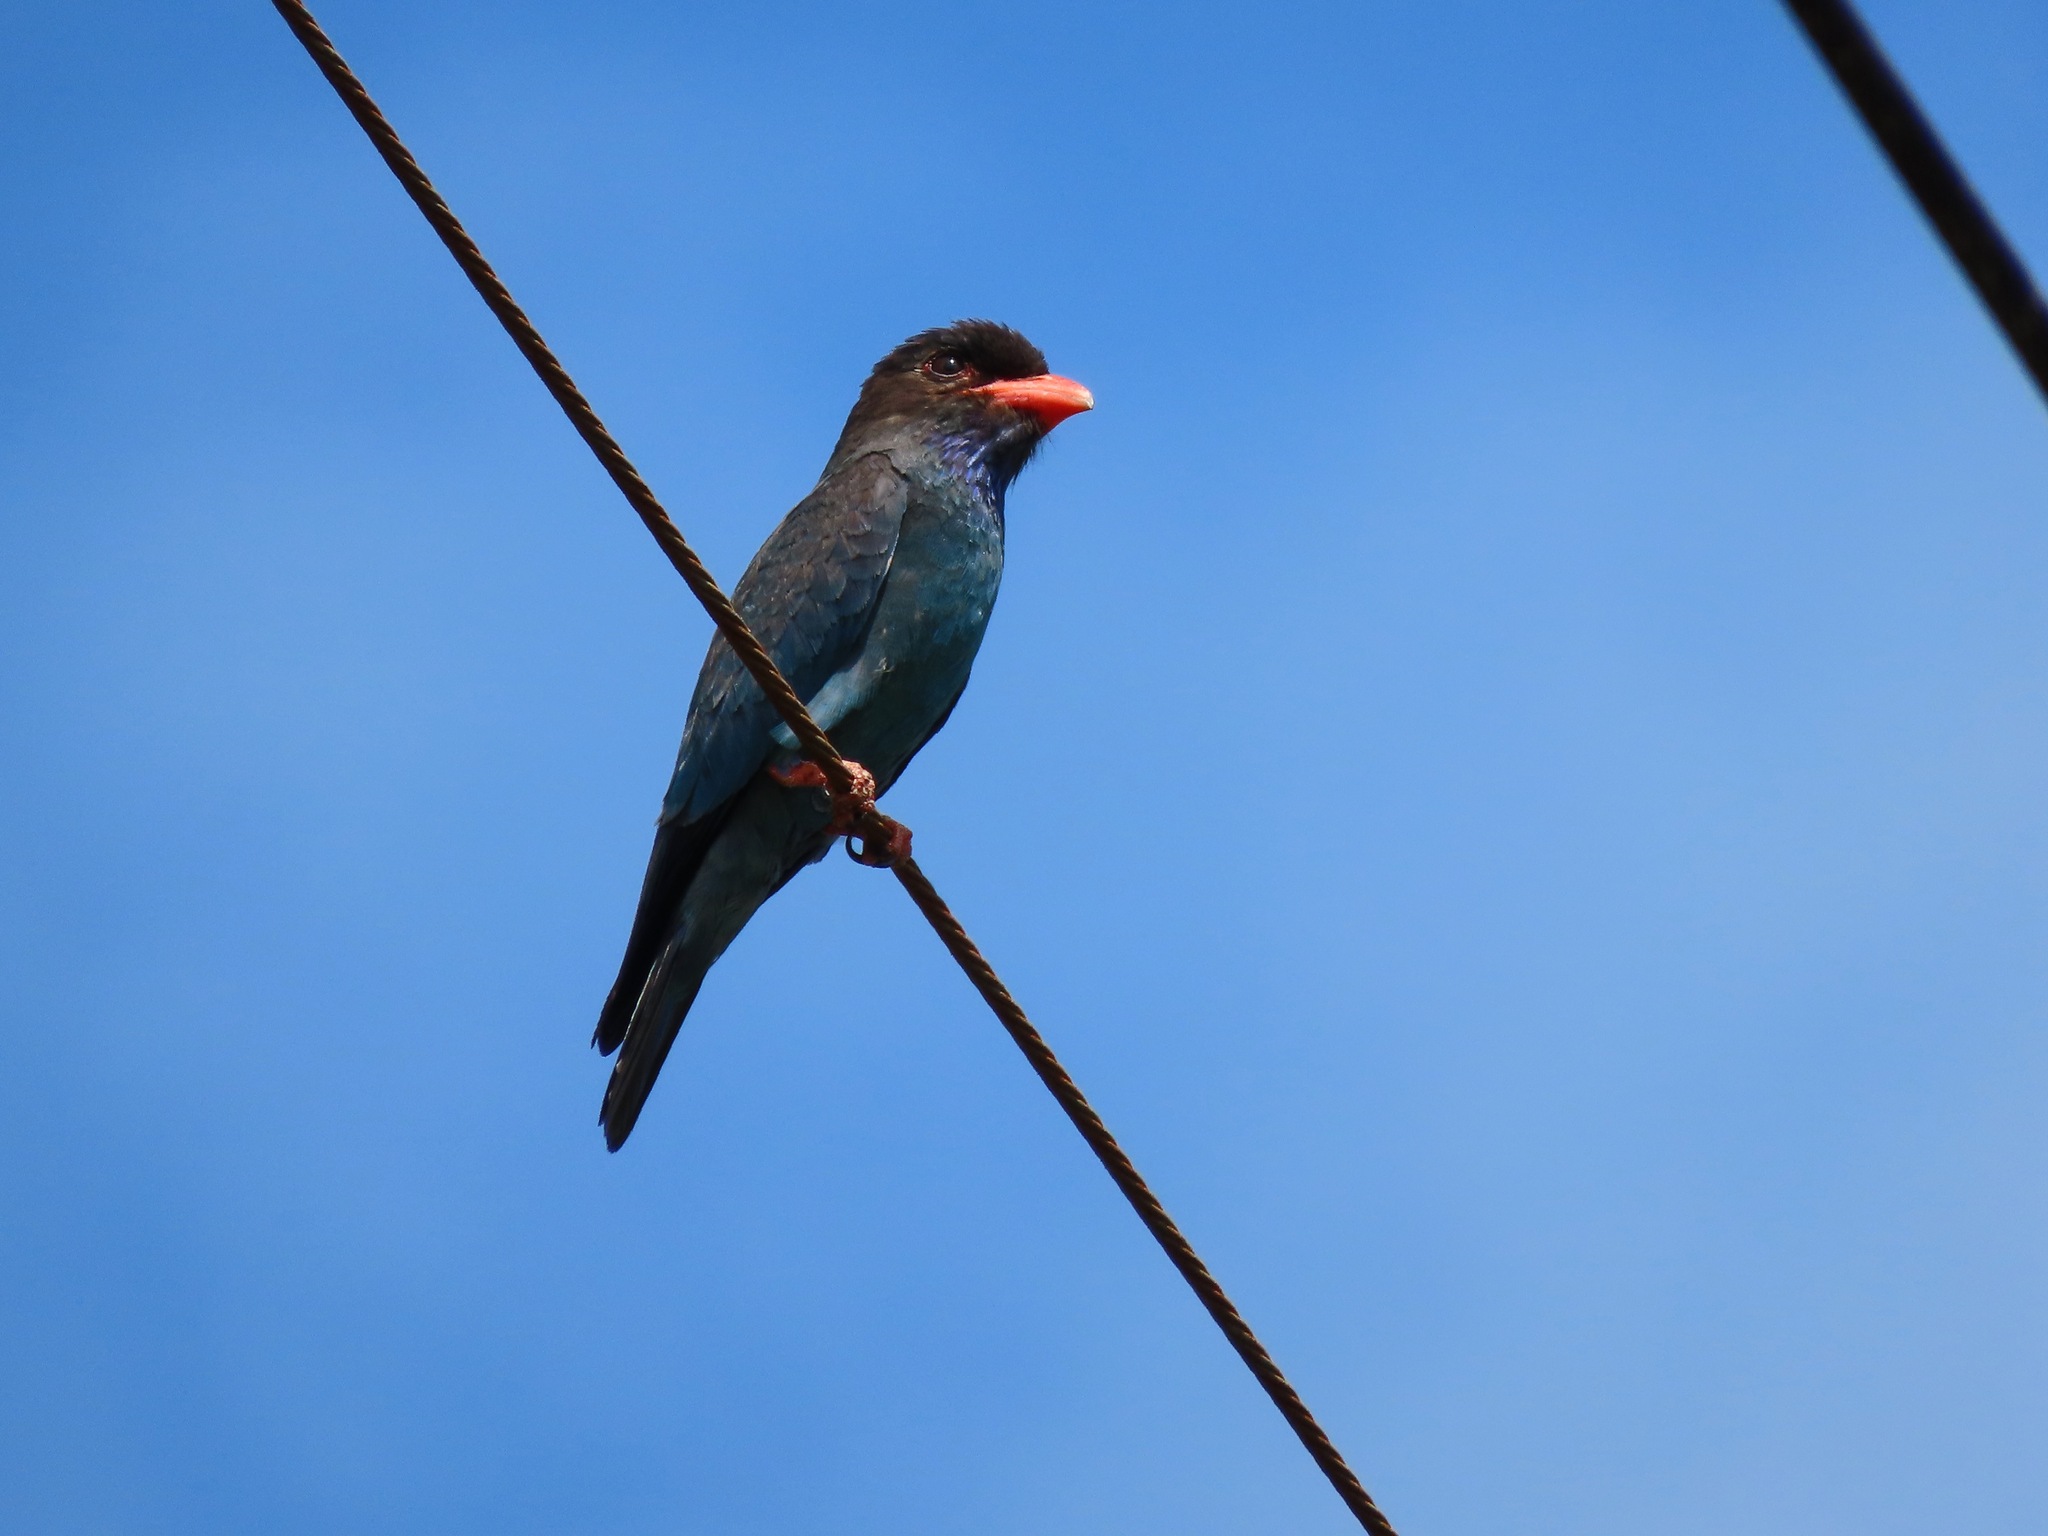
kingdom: Animalia
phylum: Chordata
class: Aves
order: Coraciiformes
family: Coraciidae
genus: Eurystomus
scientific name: Eurystomus orientalis
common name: Oriental dollarbird
